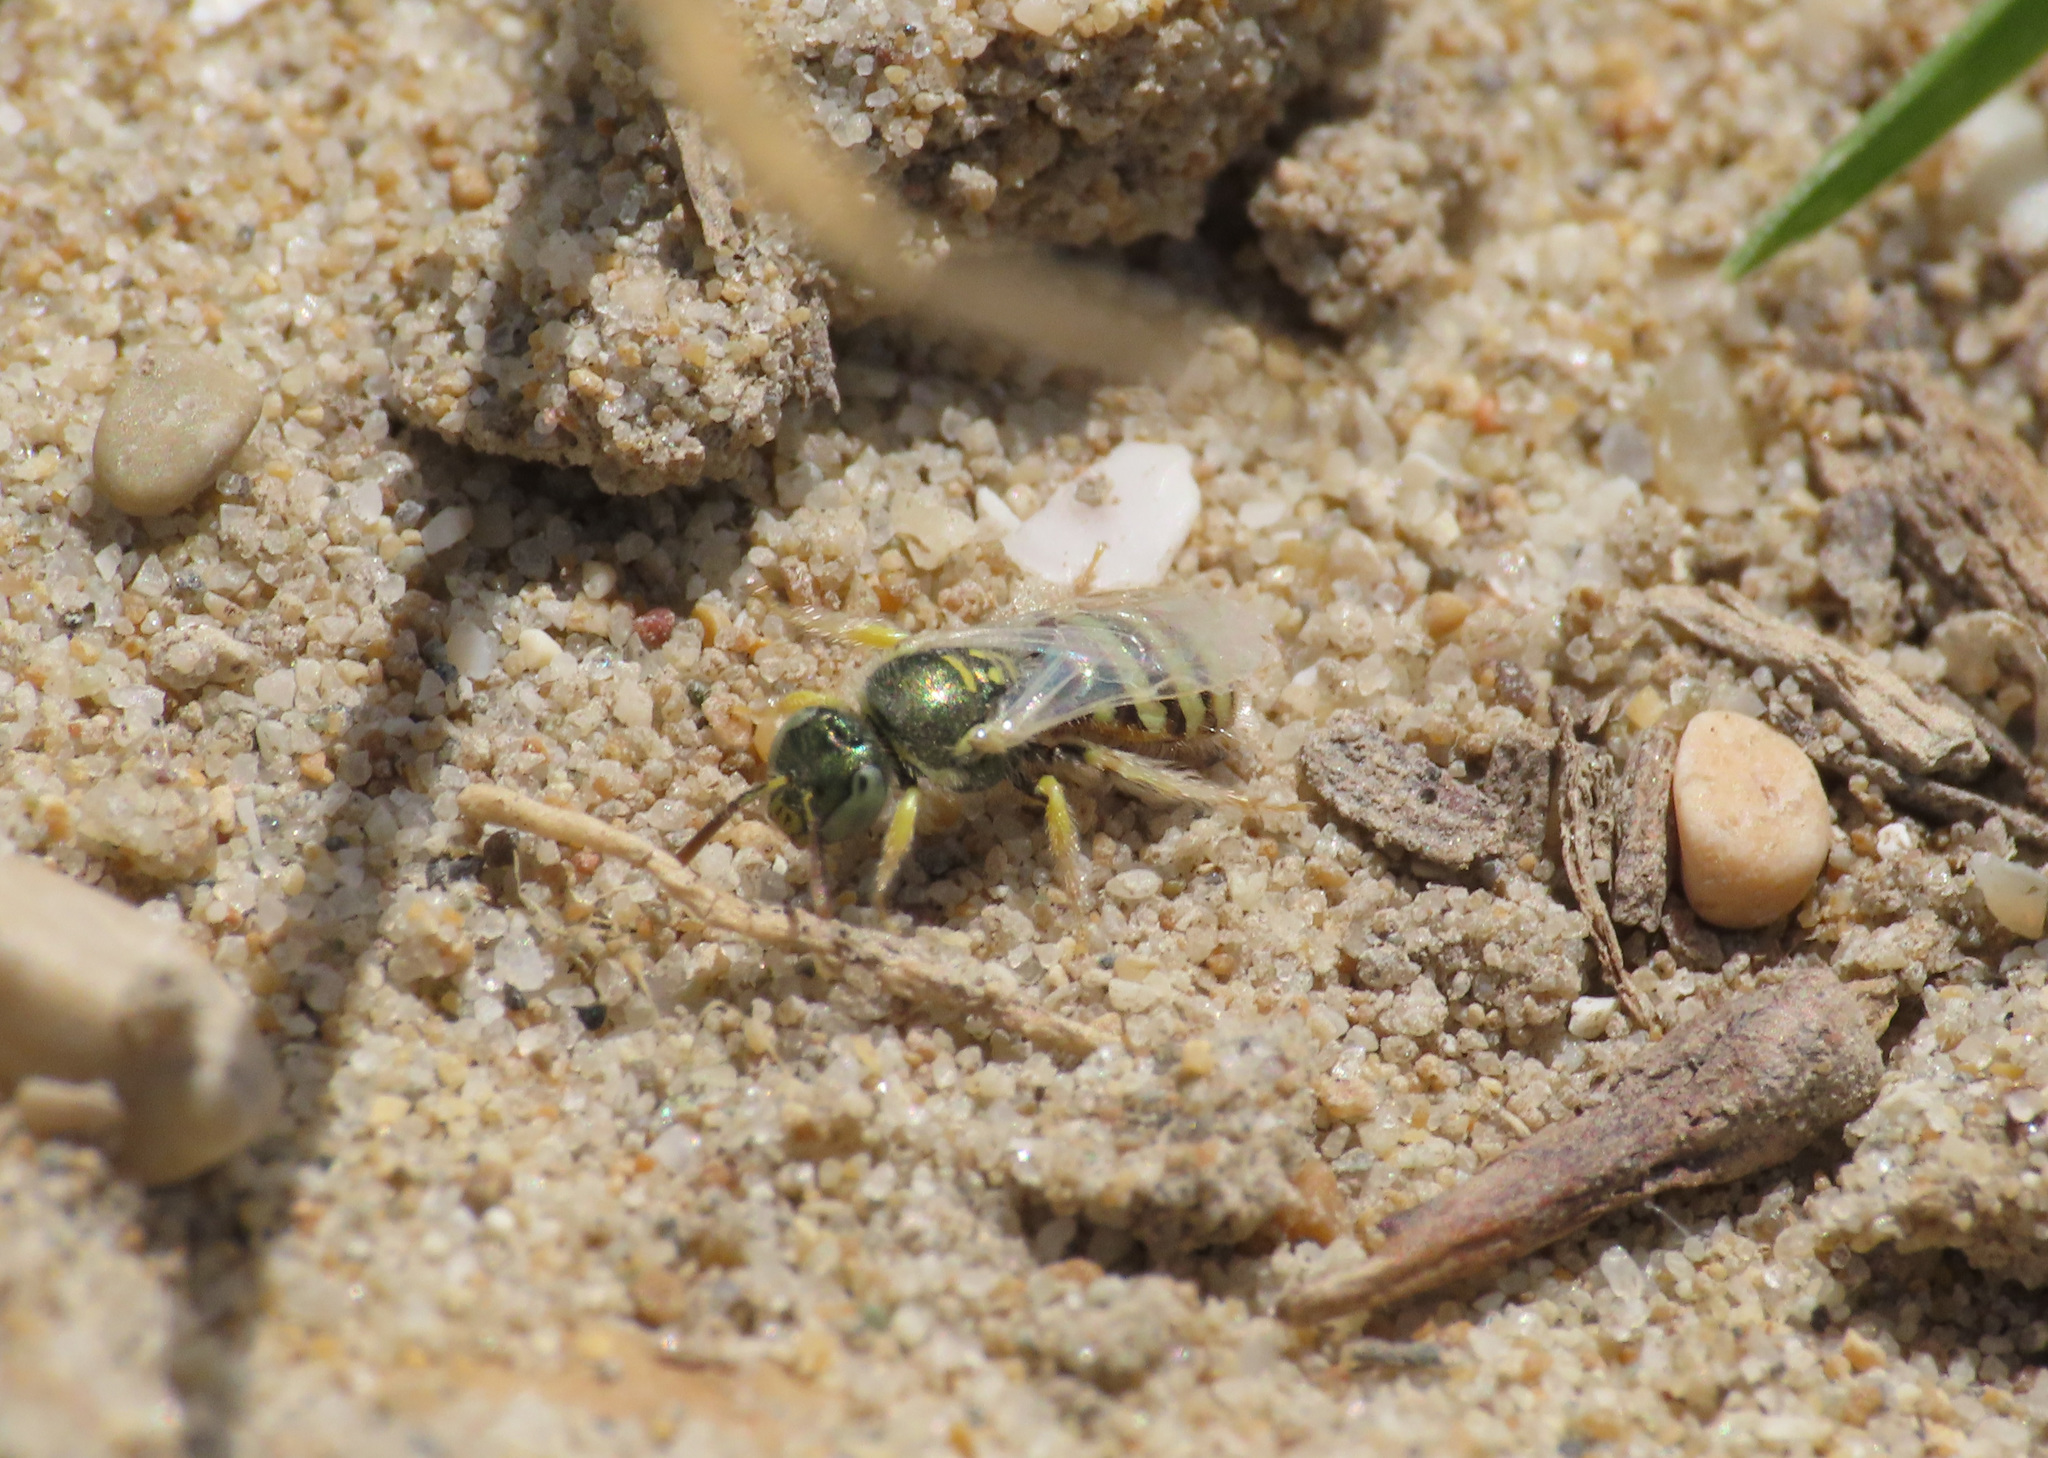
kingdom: Animalia
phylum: Arthropoda
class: Insecta
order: Hymenoptera
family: Halictidae
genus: Ceylalictus
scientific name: Ceylalictus variegatus
